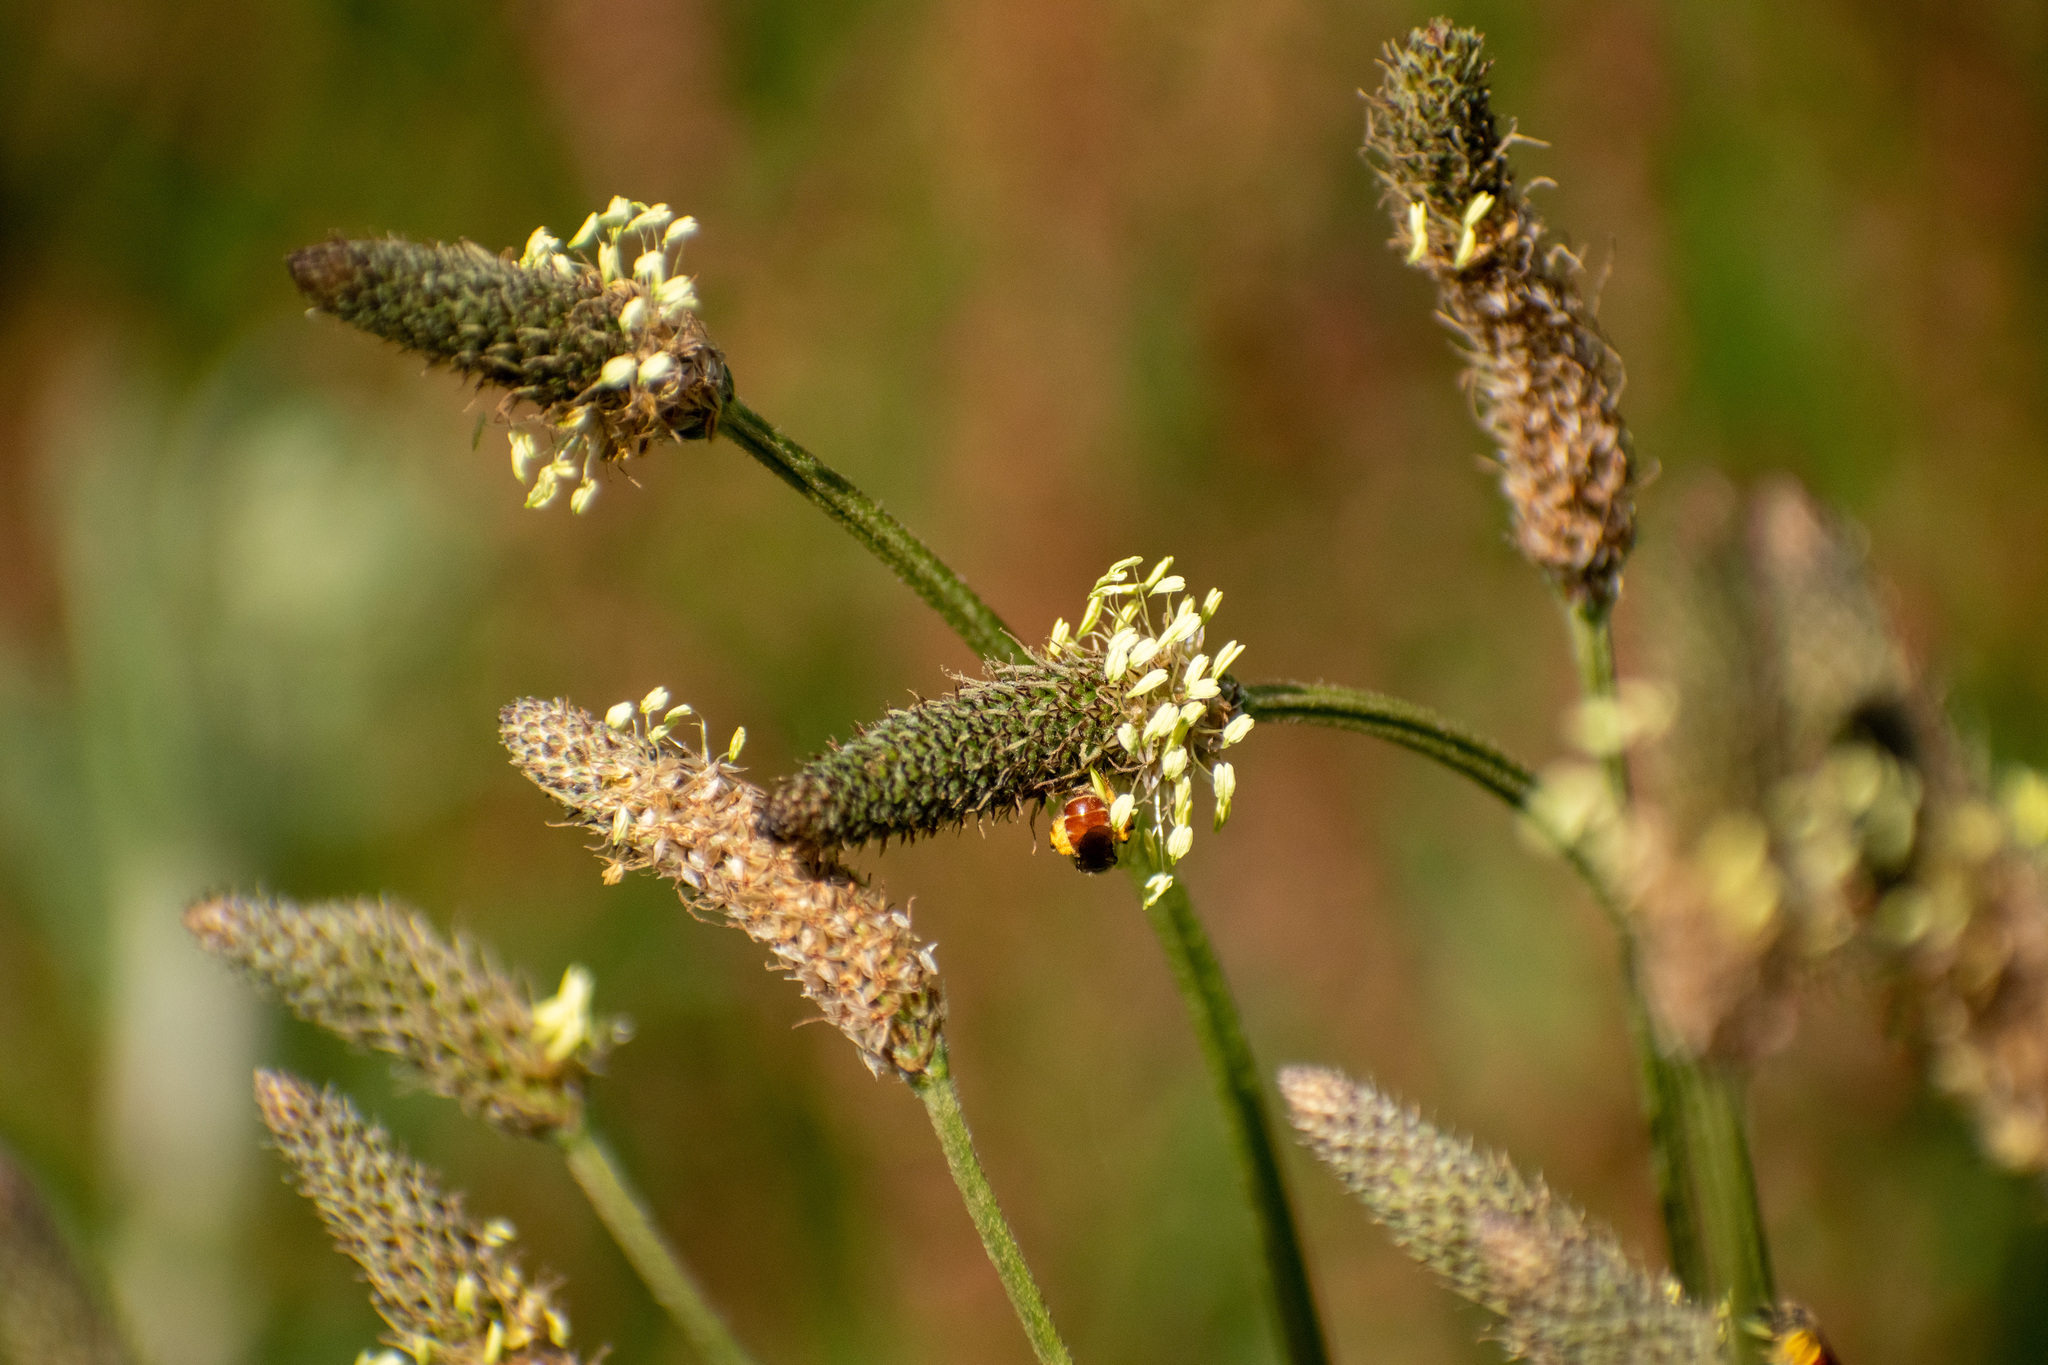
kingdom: Plantae
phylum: Tracheophyta
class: Magnoliopsida
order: Lamiales
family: Plantaginaceae
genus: Plantago
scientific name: Plantago lanceolata
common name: Ribwort plantain
